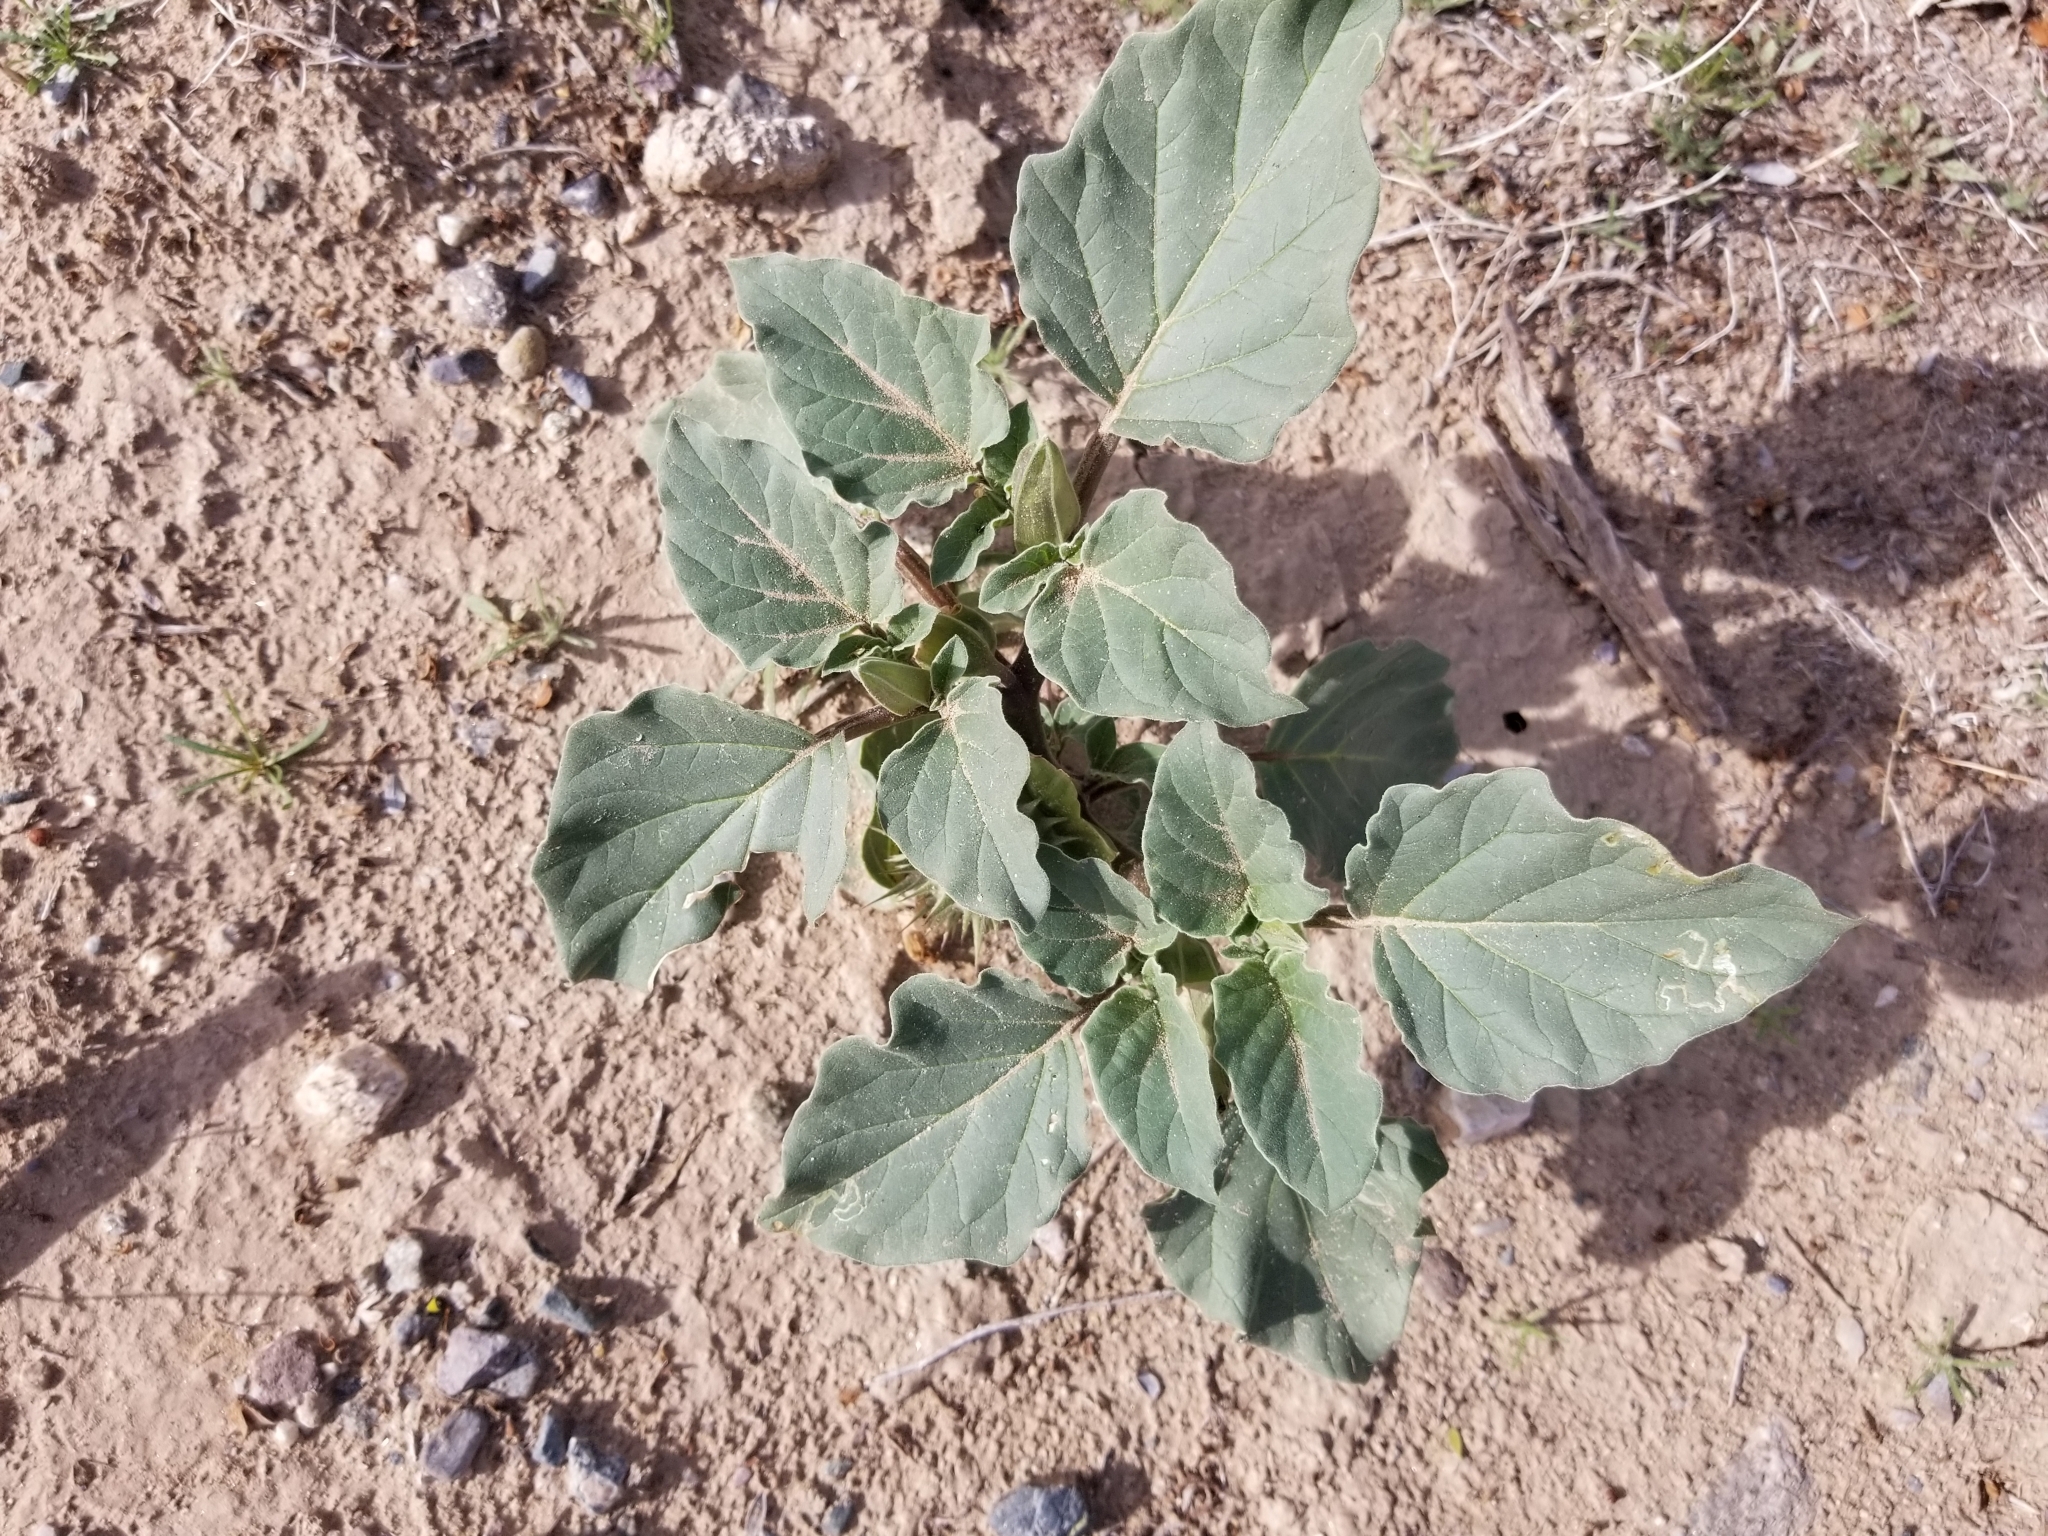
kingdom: Plantae
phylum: Tracheophyta
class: Magnoliopsida
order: Solanales
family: Solanaceae
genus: Datura
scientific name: Datura discolor
